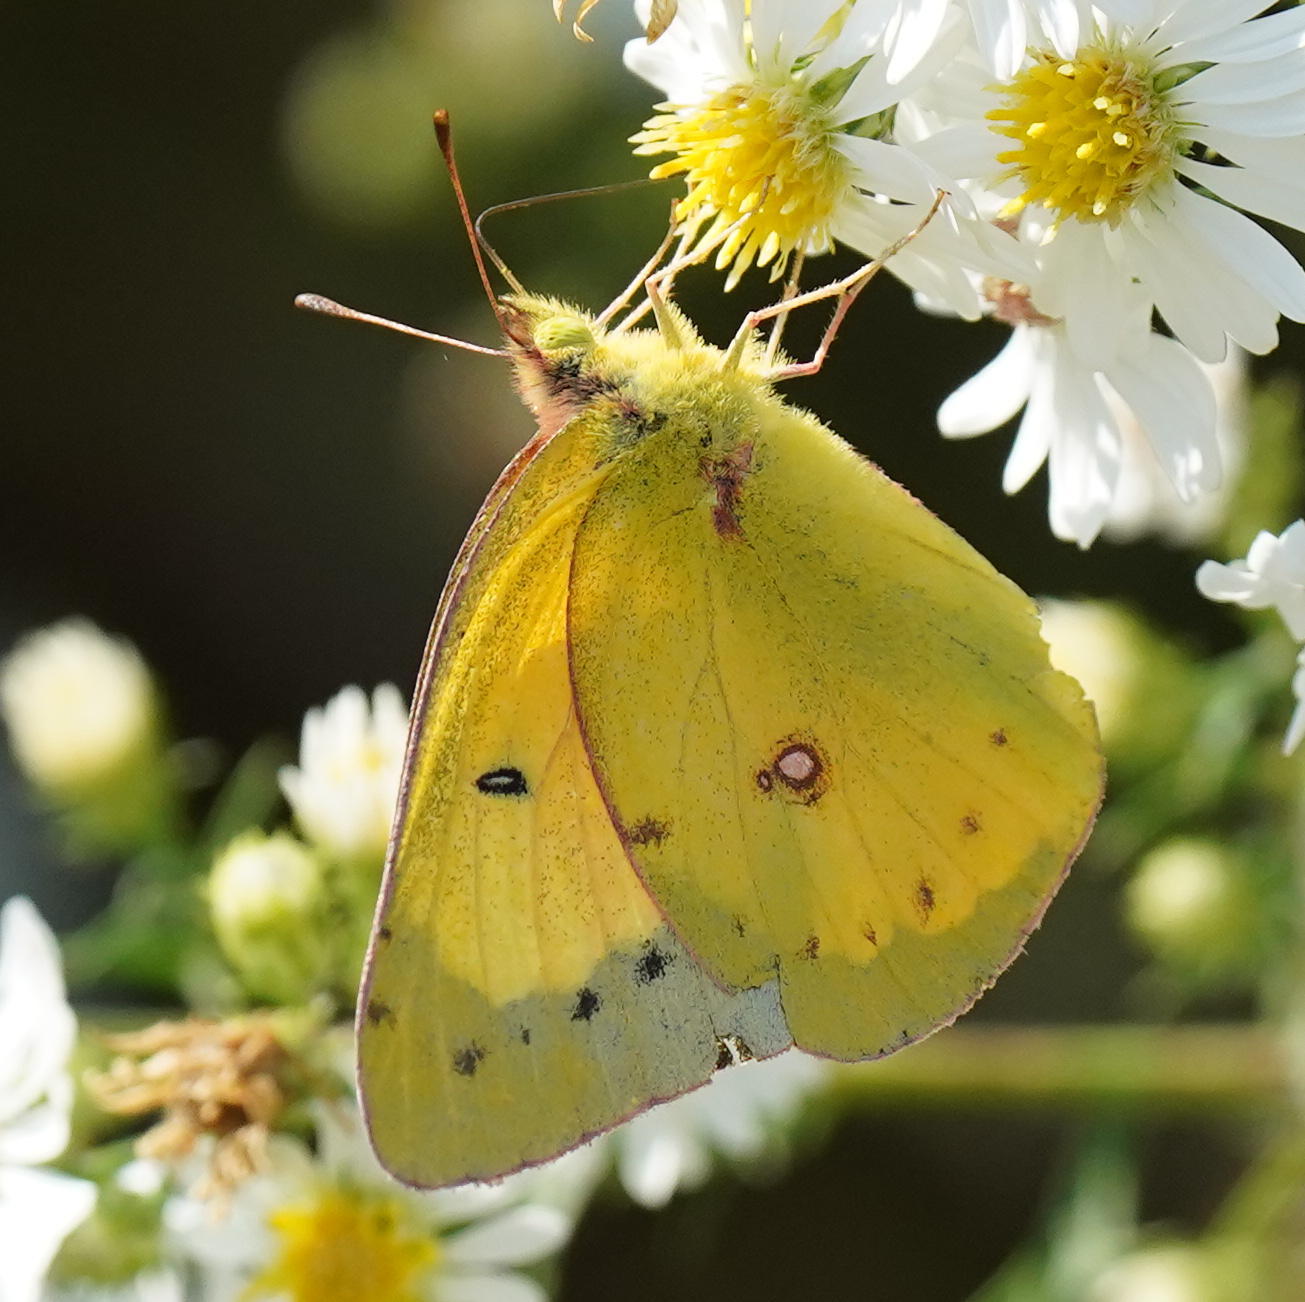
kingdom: Animalia
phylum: Arthropoda
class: Insecta
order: Lepidoptera
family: Pieridae
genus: Colias
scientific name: Colias eurytheme
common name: Alfalfa butterfly
